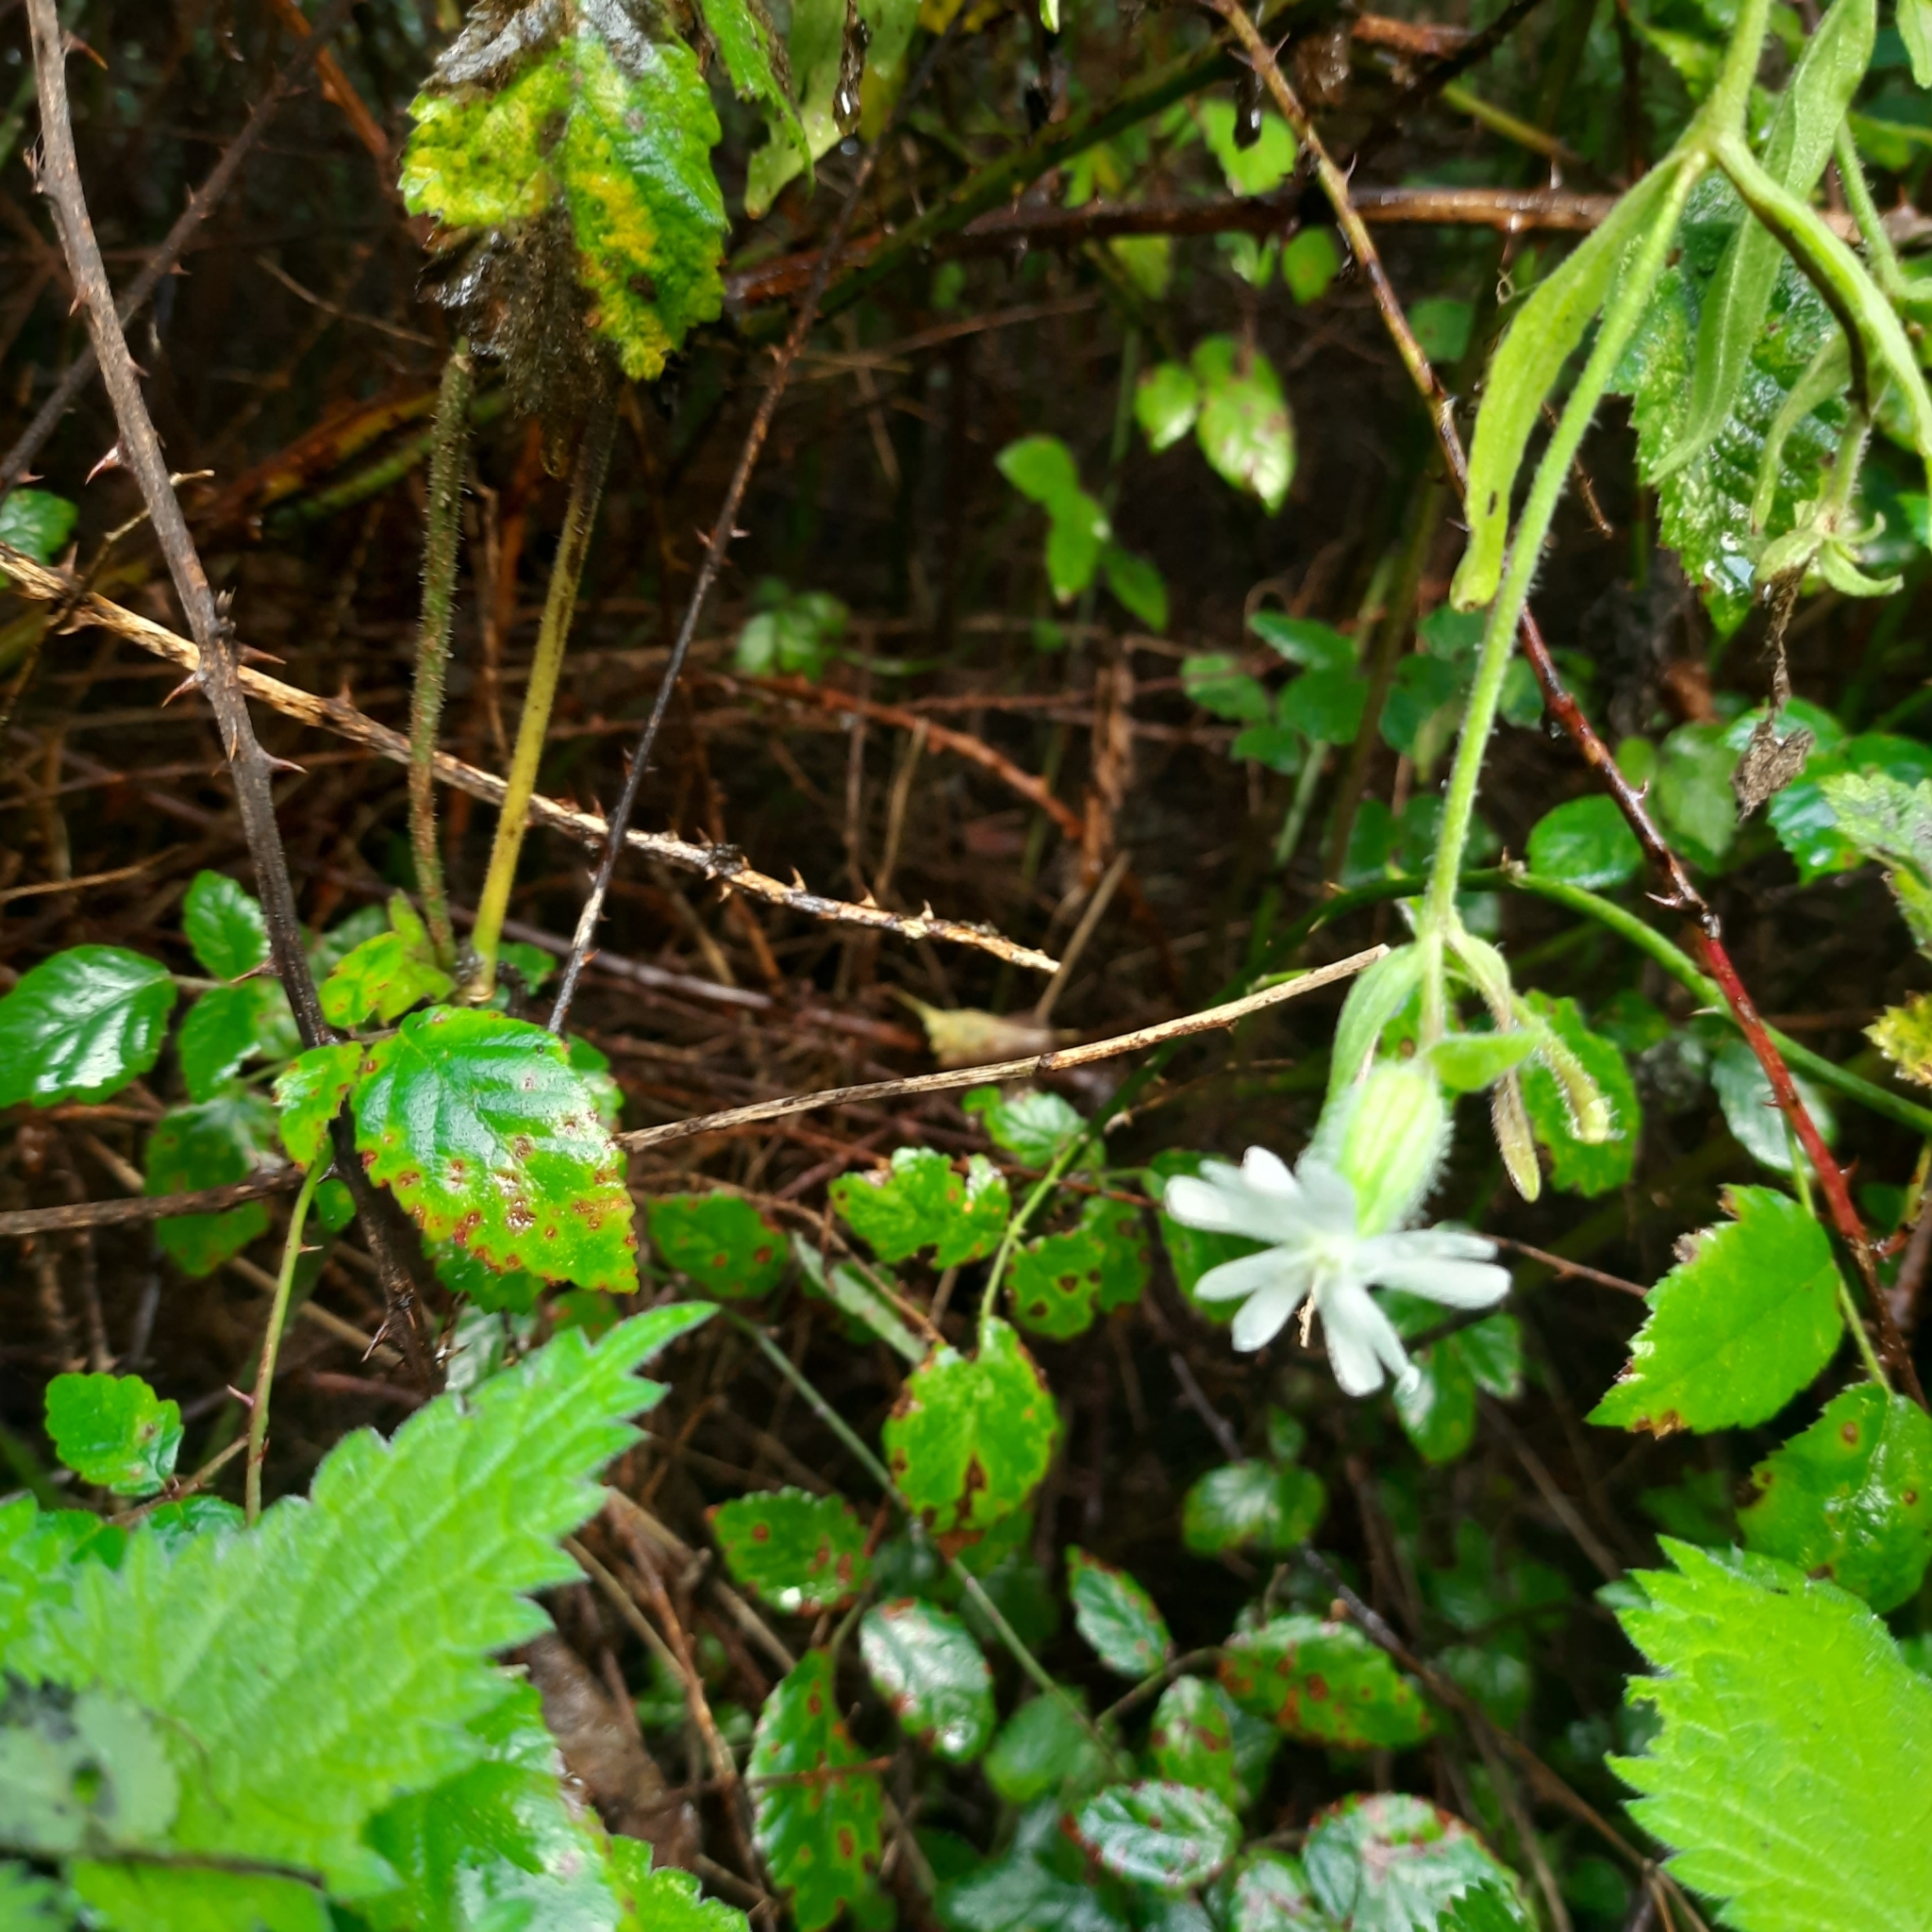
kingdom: Plantae
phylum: Tracheophyta
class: Magnoliopsida
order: Caryophyllales
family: Caryophyllaceae
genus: Silene
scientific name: Silene latifolia
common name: White campion
